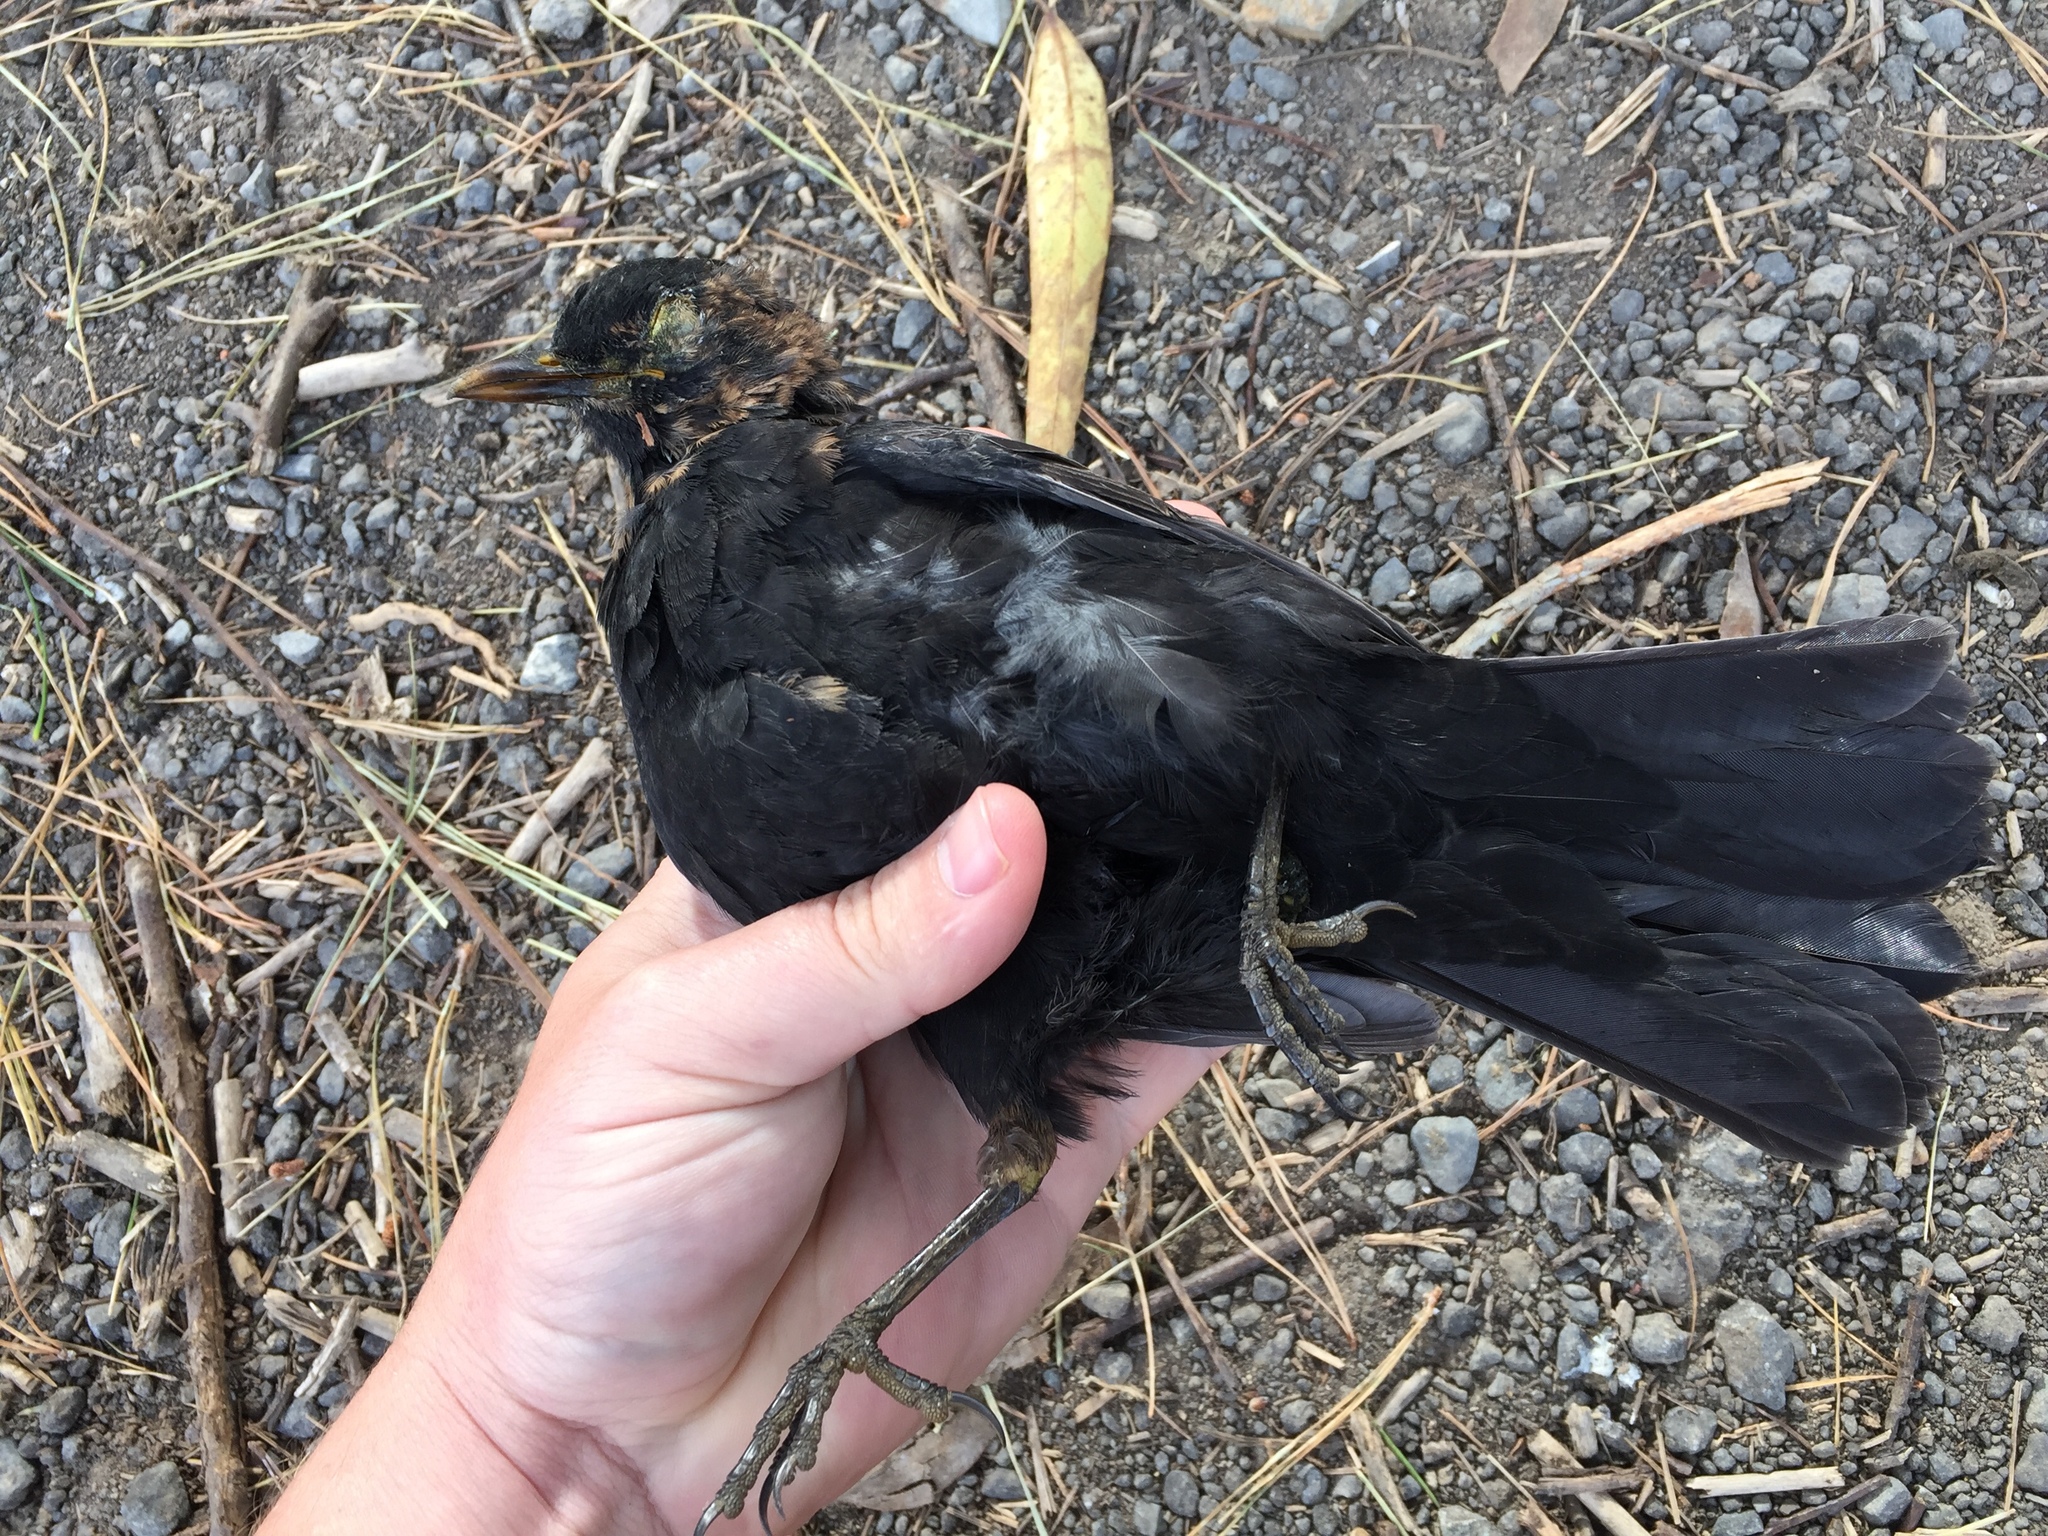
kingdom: Animalia
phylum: Chordata
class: Aves
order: Passeriformes
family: Turdidae
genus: Turdus
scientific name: Turdus merula
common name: Common blackbird
